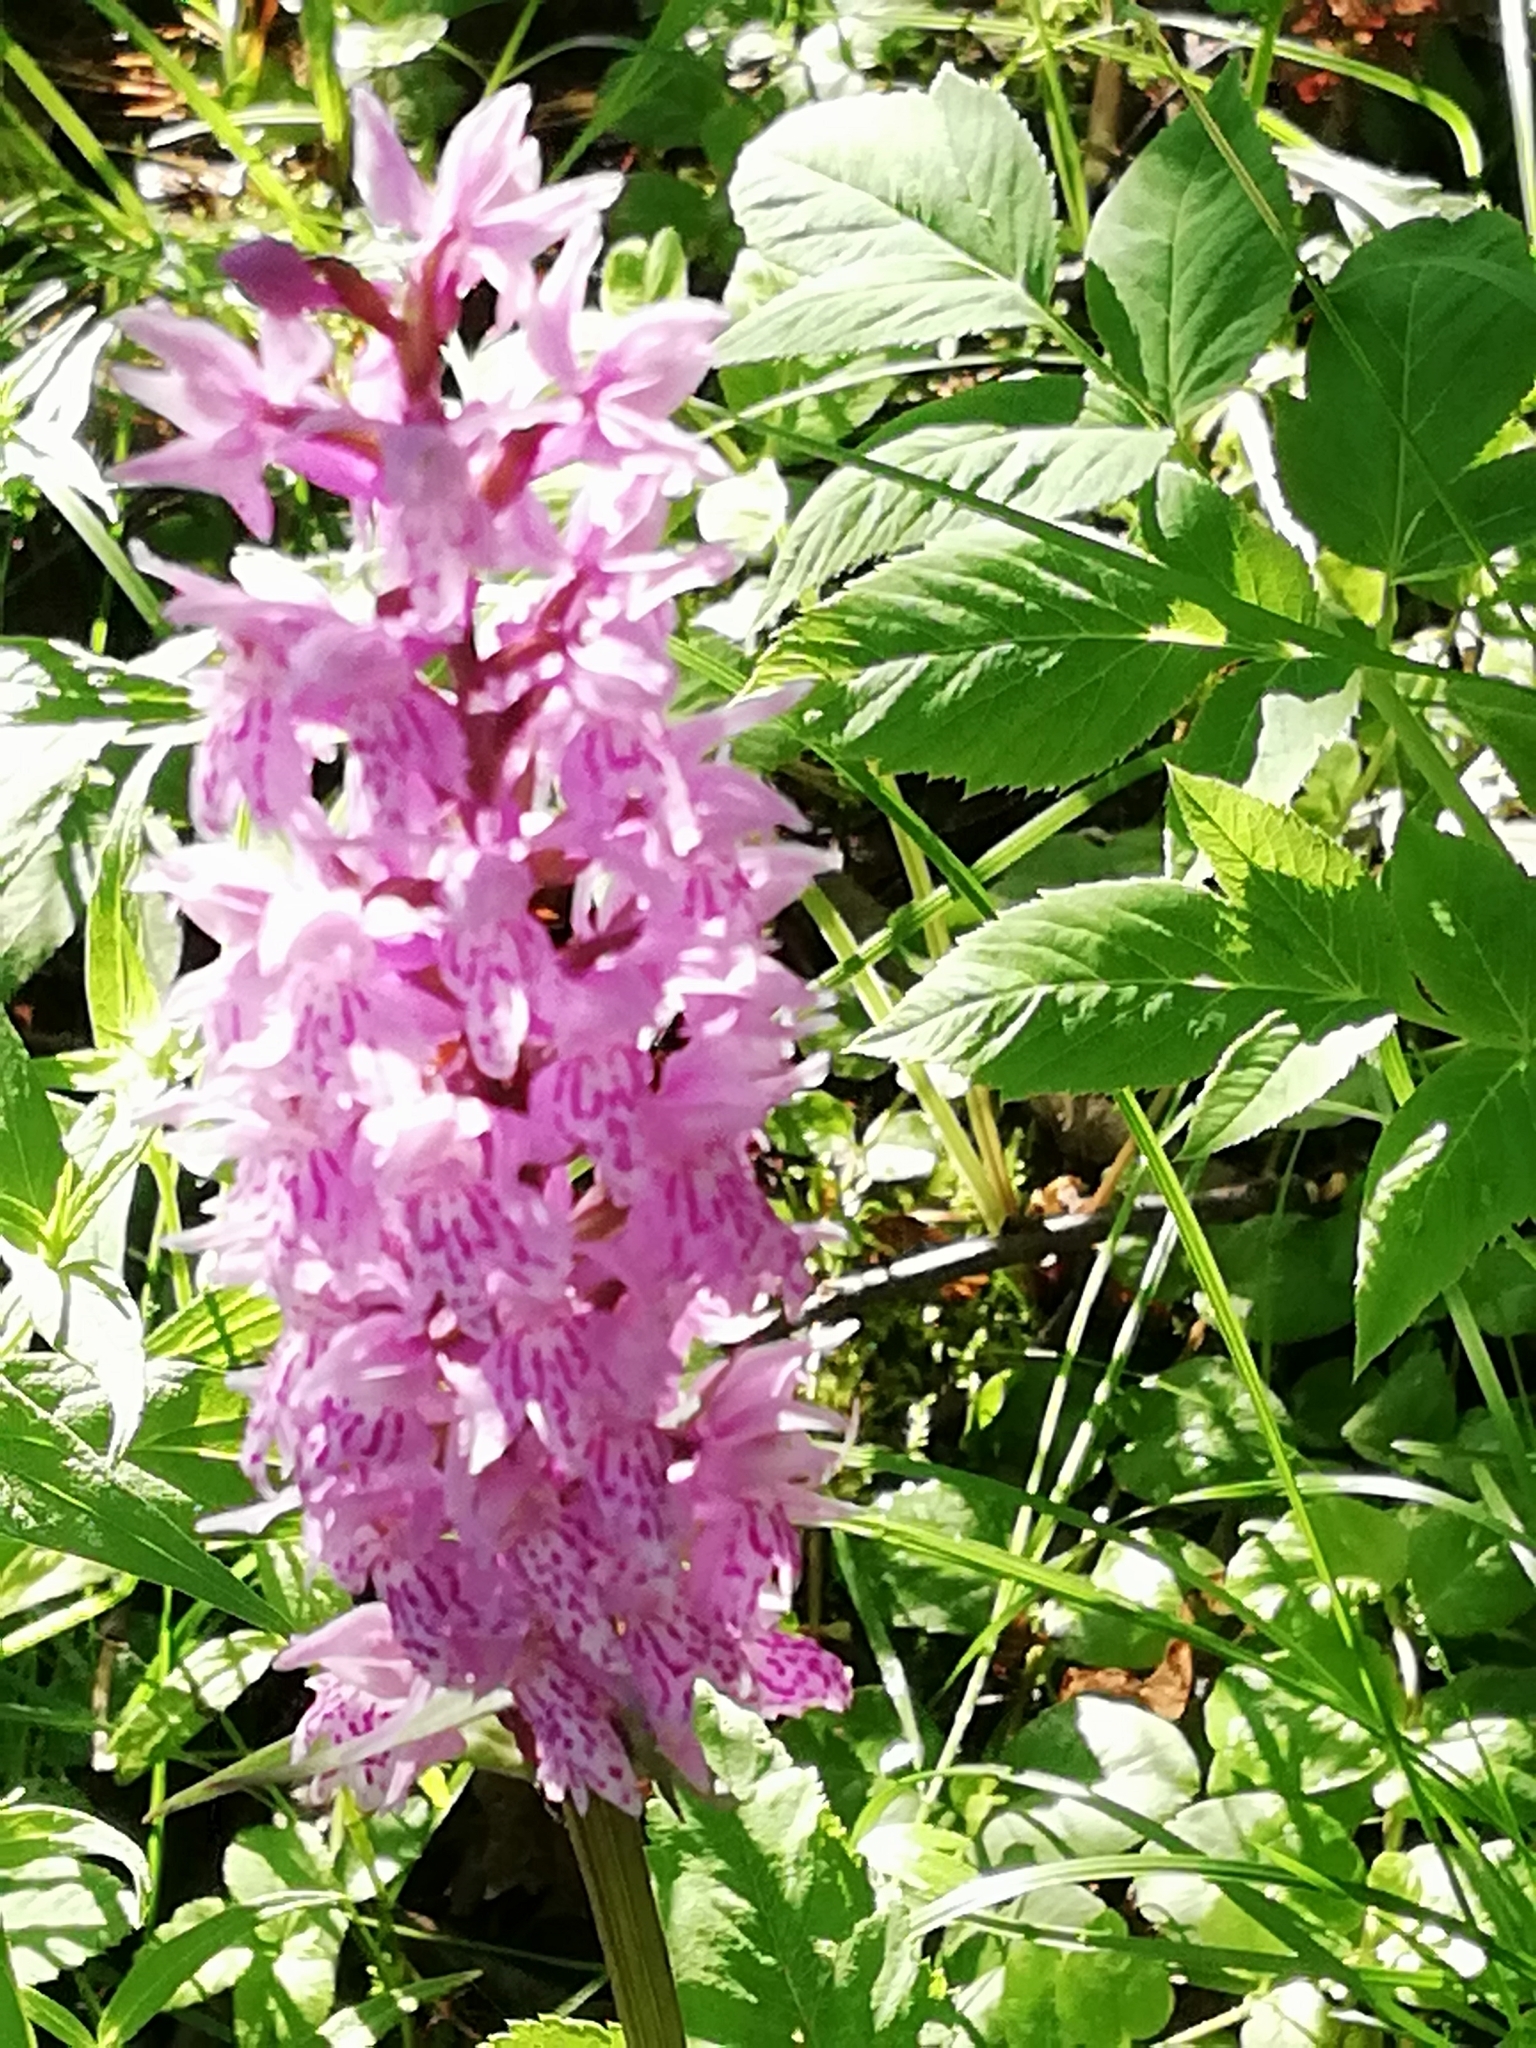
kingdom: Plantae
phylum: Tracheophyta
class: Liliopsida
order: Asparagales
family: Orchidaceae
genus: Dactylorhiza
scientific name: Dactylorhiza maculata
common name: Heath spotted-orchid
